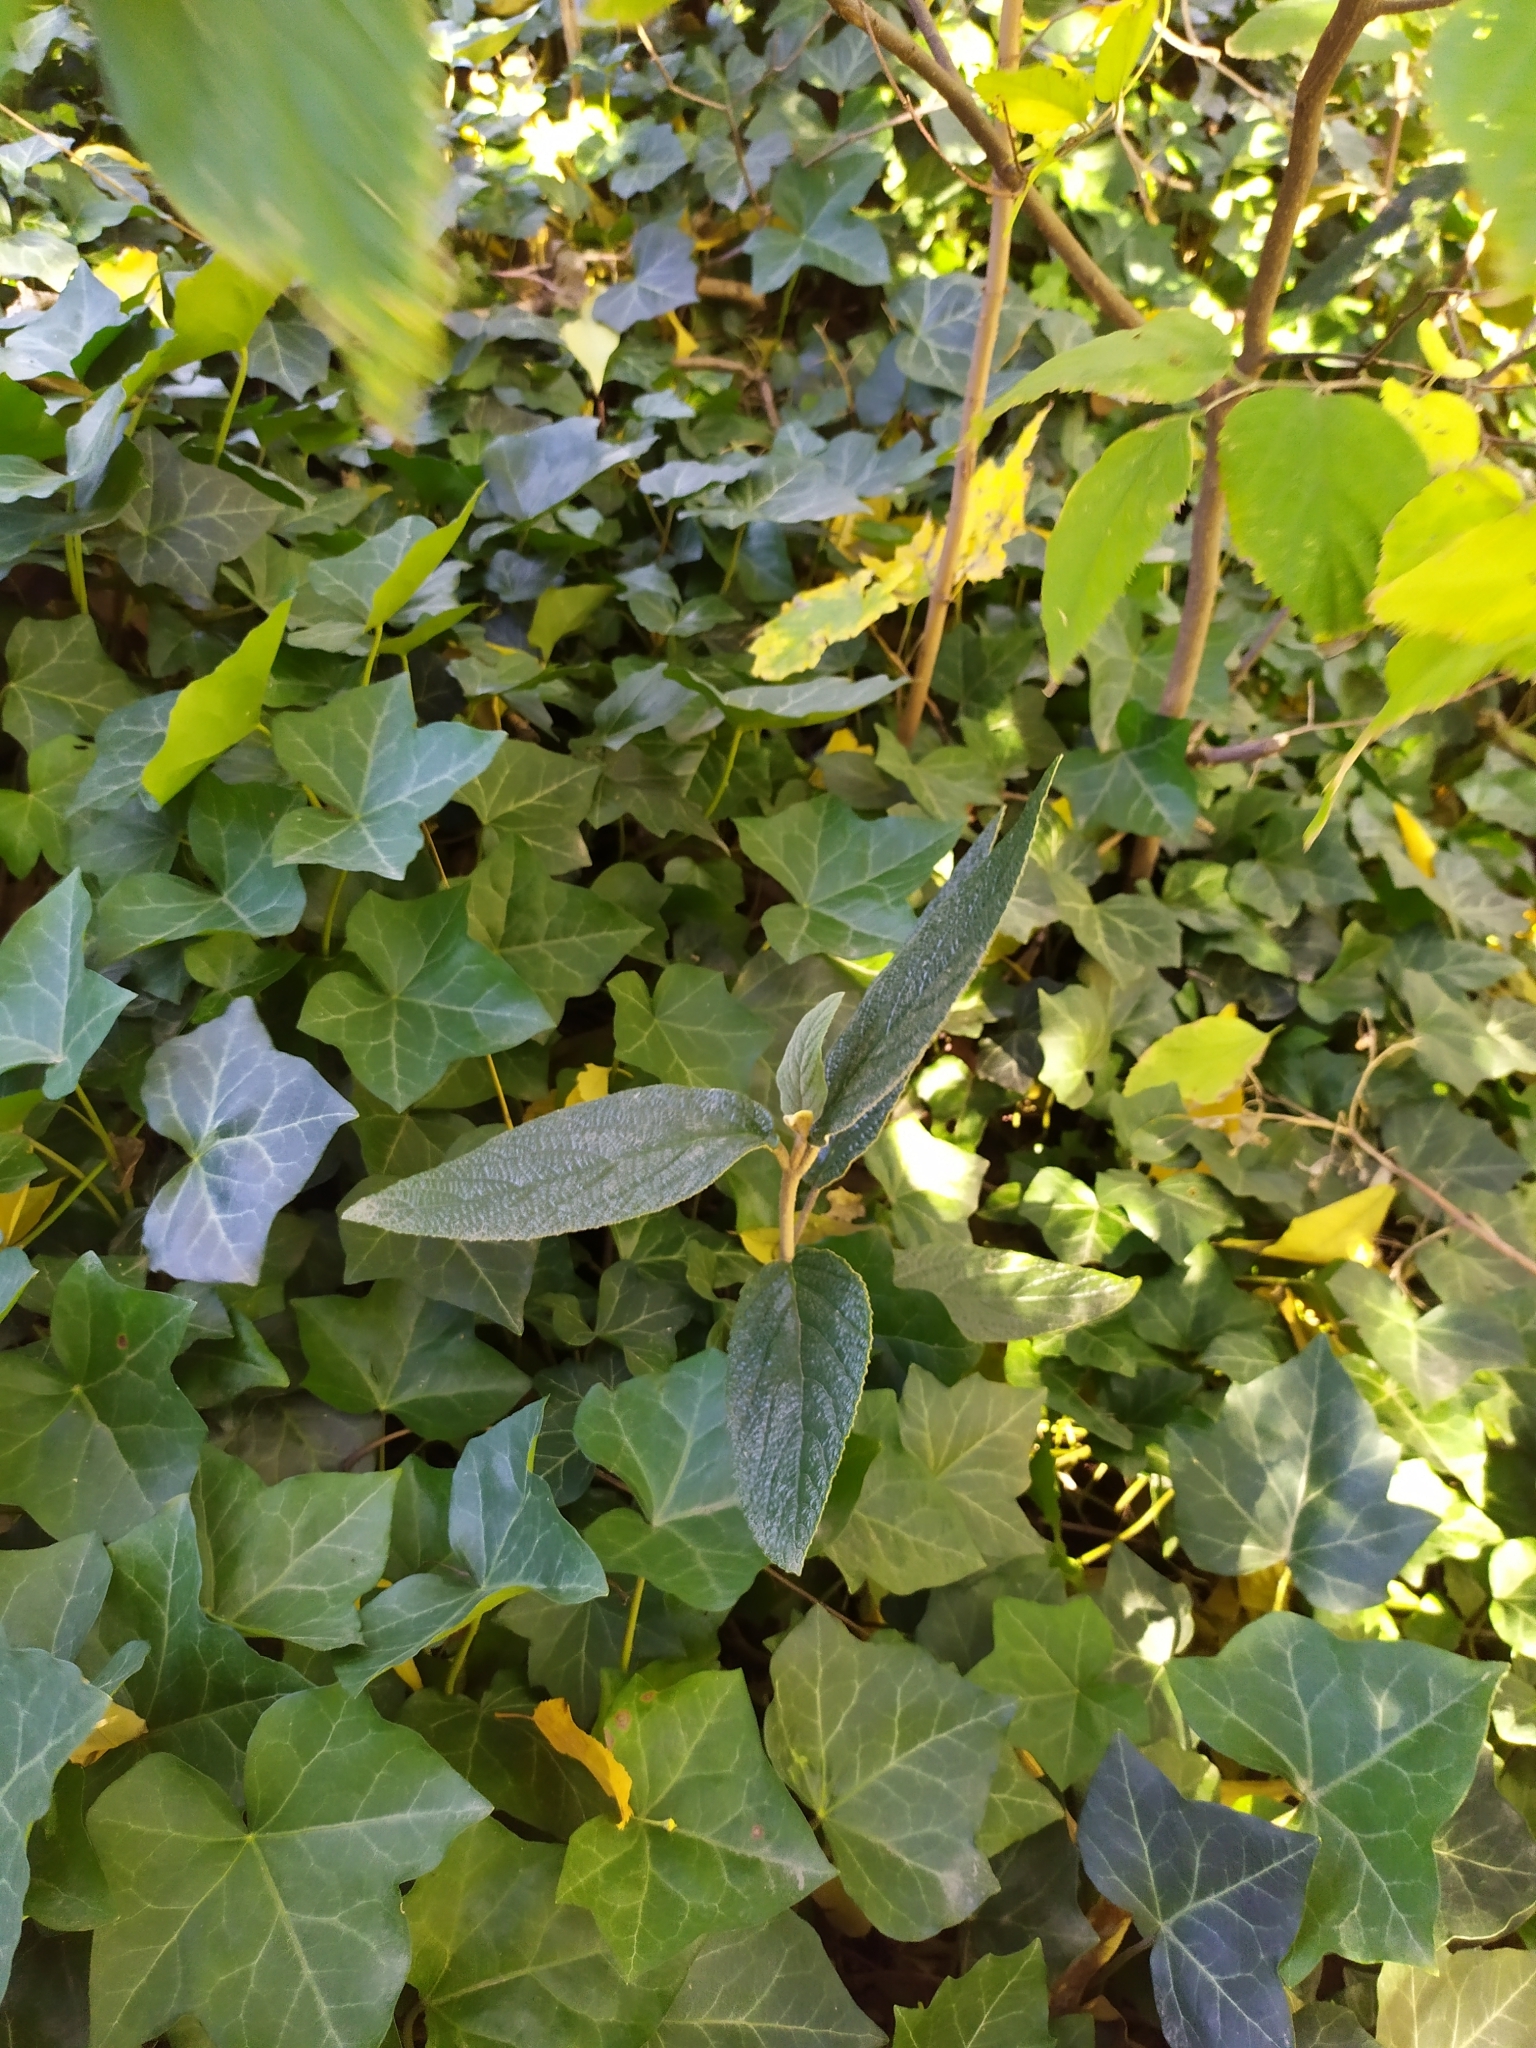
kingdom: Plantae
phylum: Tracheophyta
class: Magnoliopsida
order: Dipsacales
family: Viburnaceae
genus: Viburnum
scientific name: Viburnum rhytidophyllum
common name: Wrinkled viburnum
